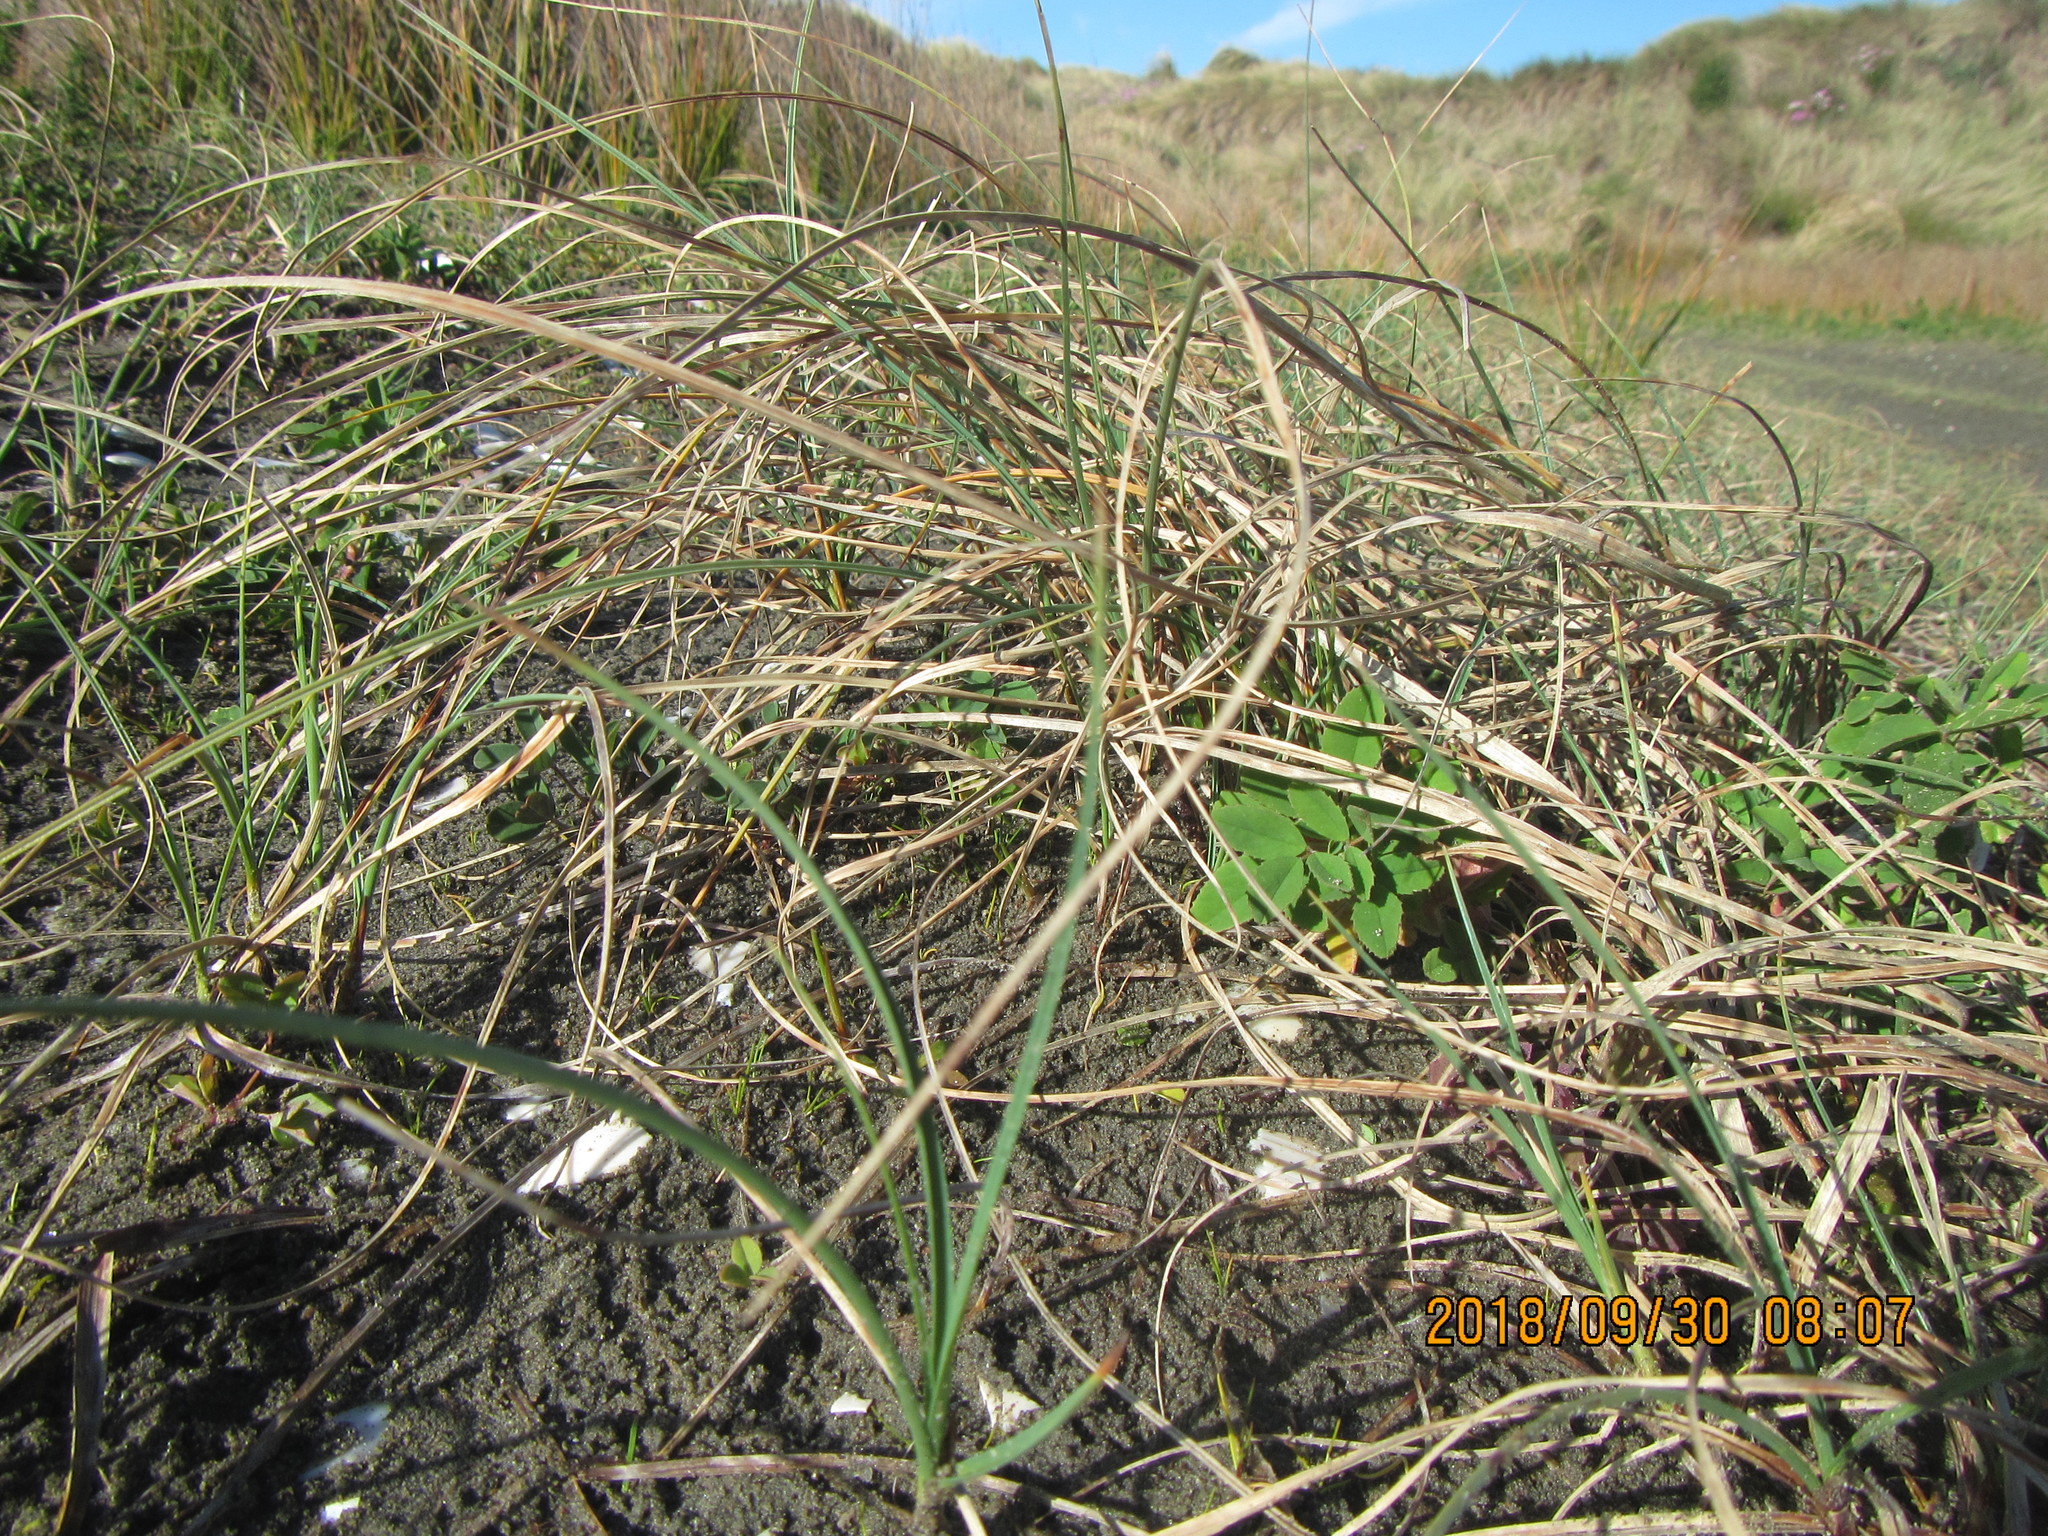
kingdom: Plantae
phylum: Tracheophyta
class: Liliopsida
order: Poales
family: Cyperaceae
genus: Carex
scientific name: Carex pumila
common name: Dwarf sedge
